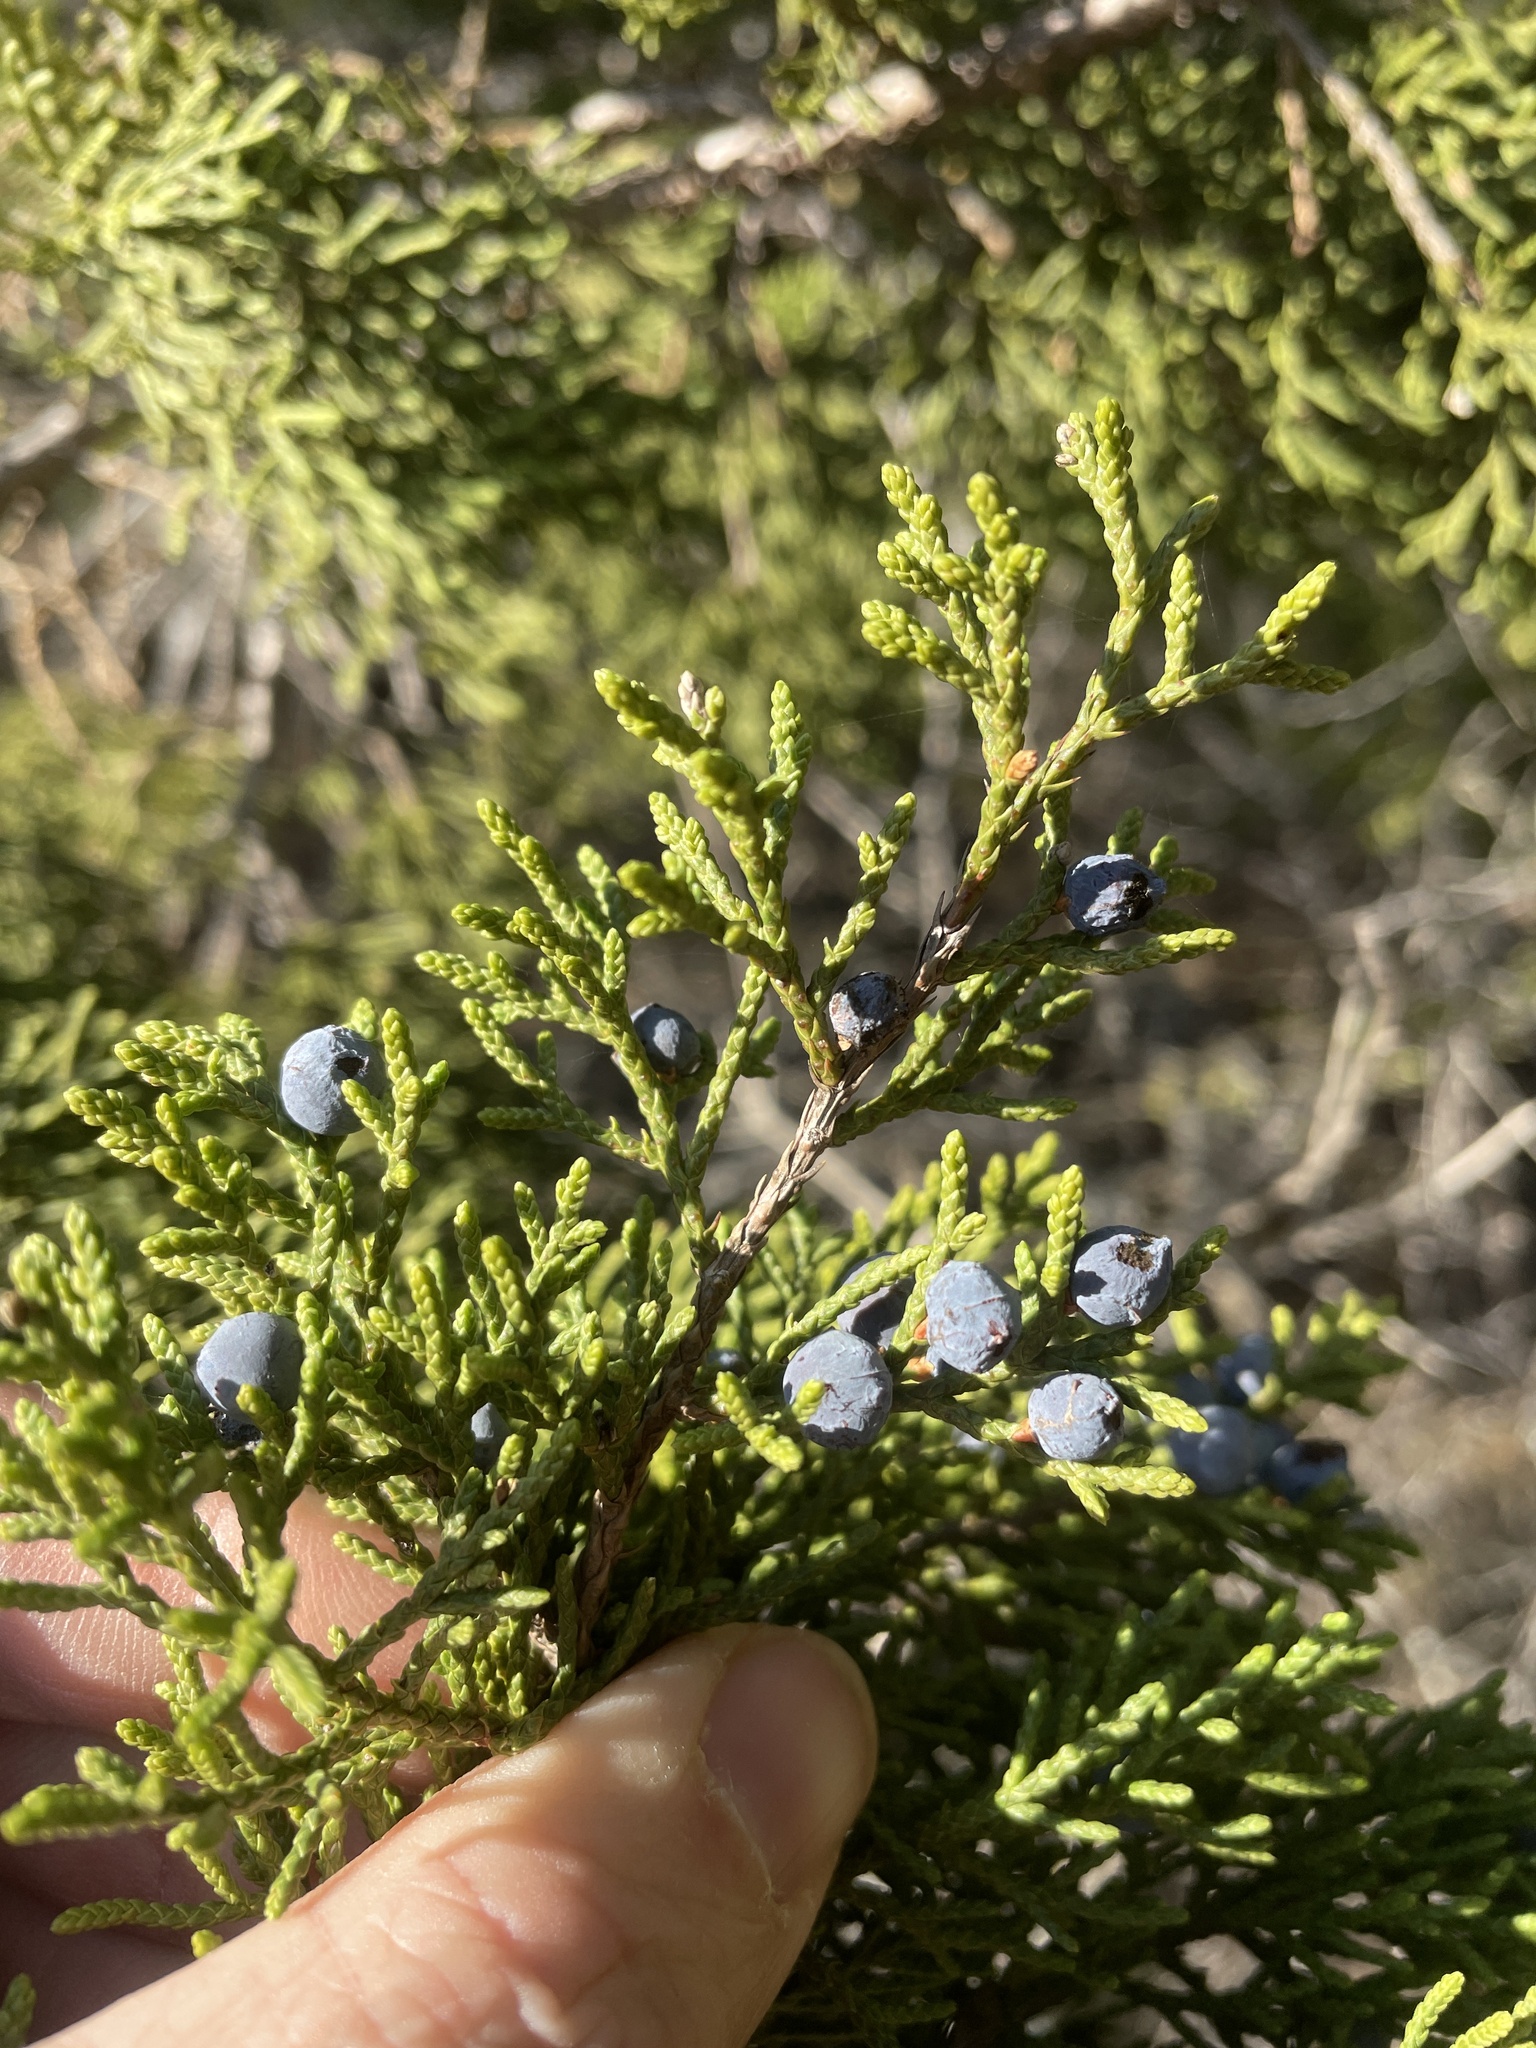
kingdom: Plantae
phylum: Tracheophyta
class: Pinopsida
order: Pinales
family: Cupressaceae
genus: Juniperus
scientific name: Juniperus ashei
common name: Mexican juniper
